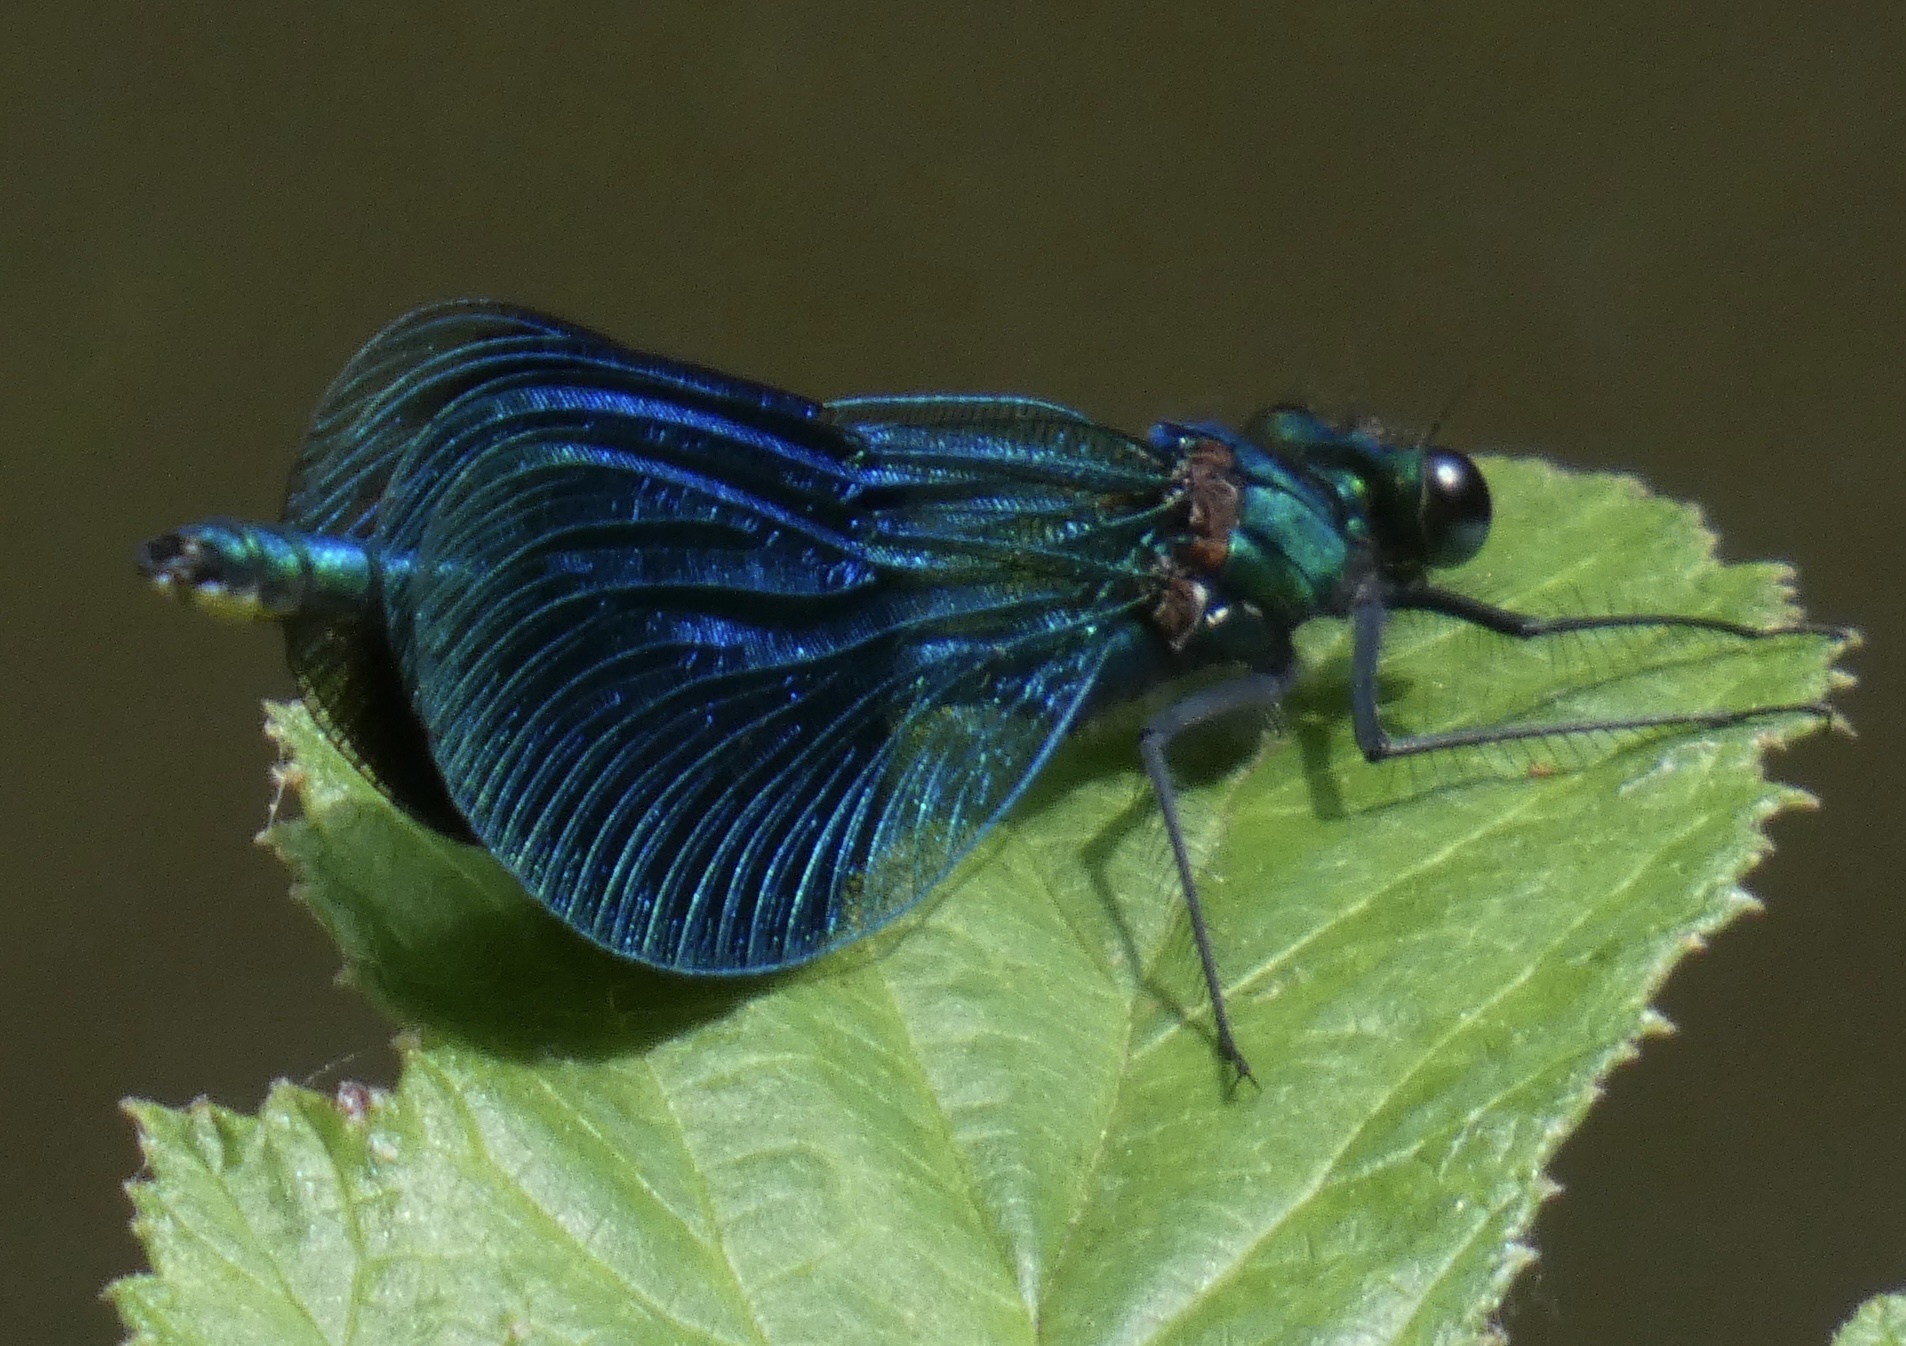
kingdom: Animalia
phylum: Arthropoda
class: Insecta
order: Odonata
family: Calopterygidae
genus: Calopteryx
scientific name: Calopteryx splendens
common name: Banded demoiselle
